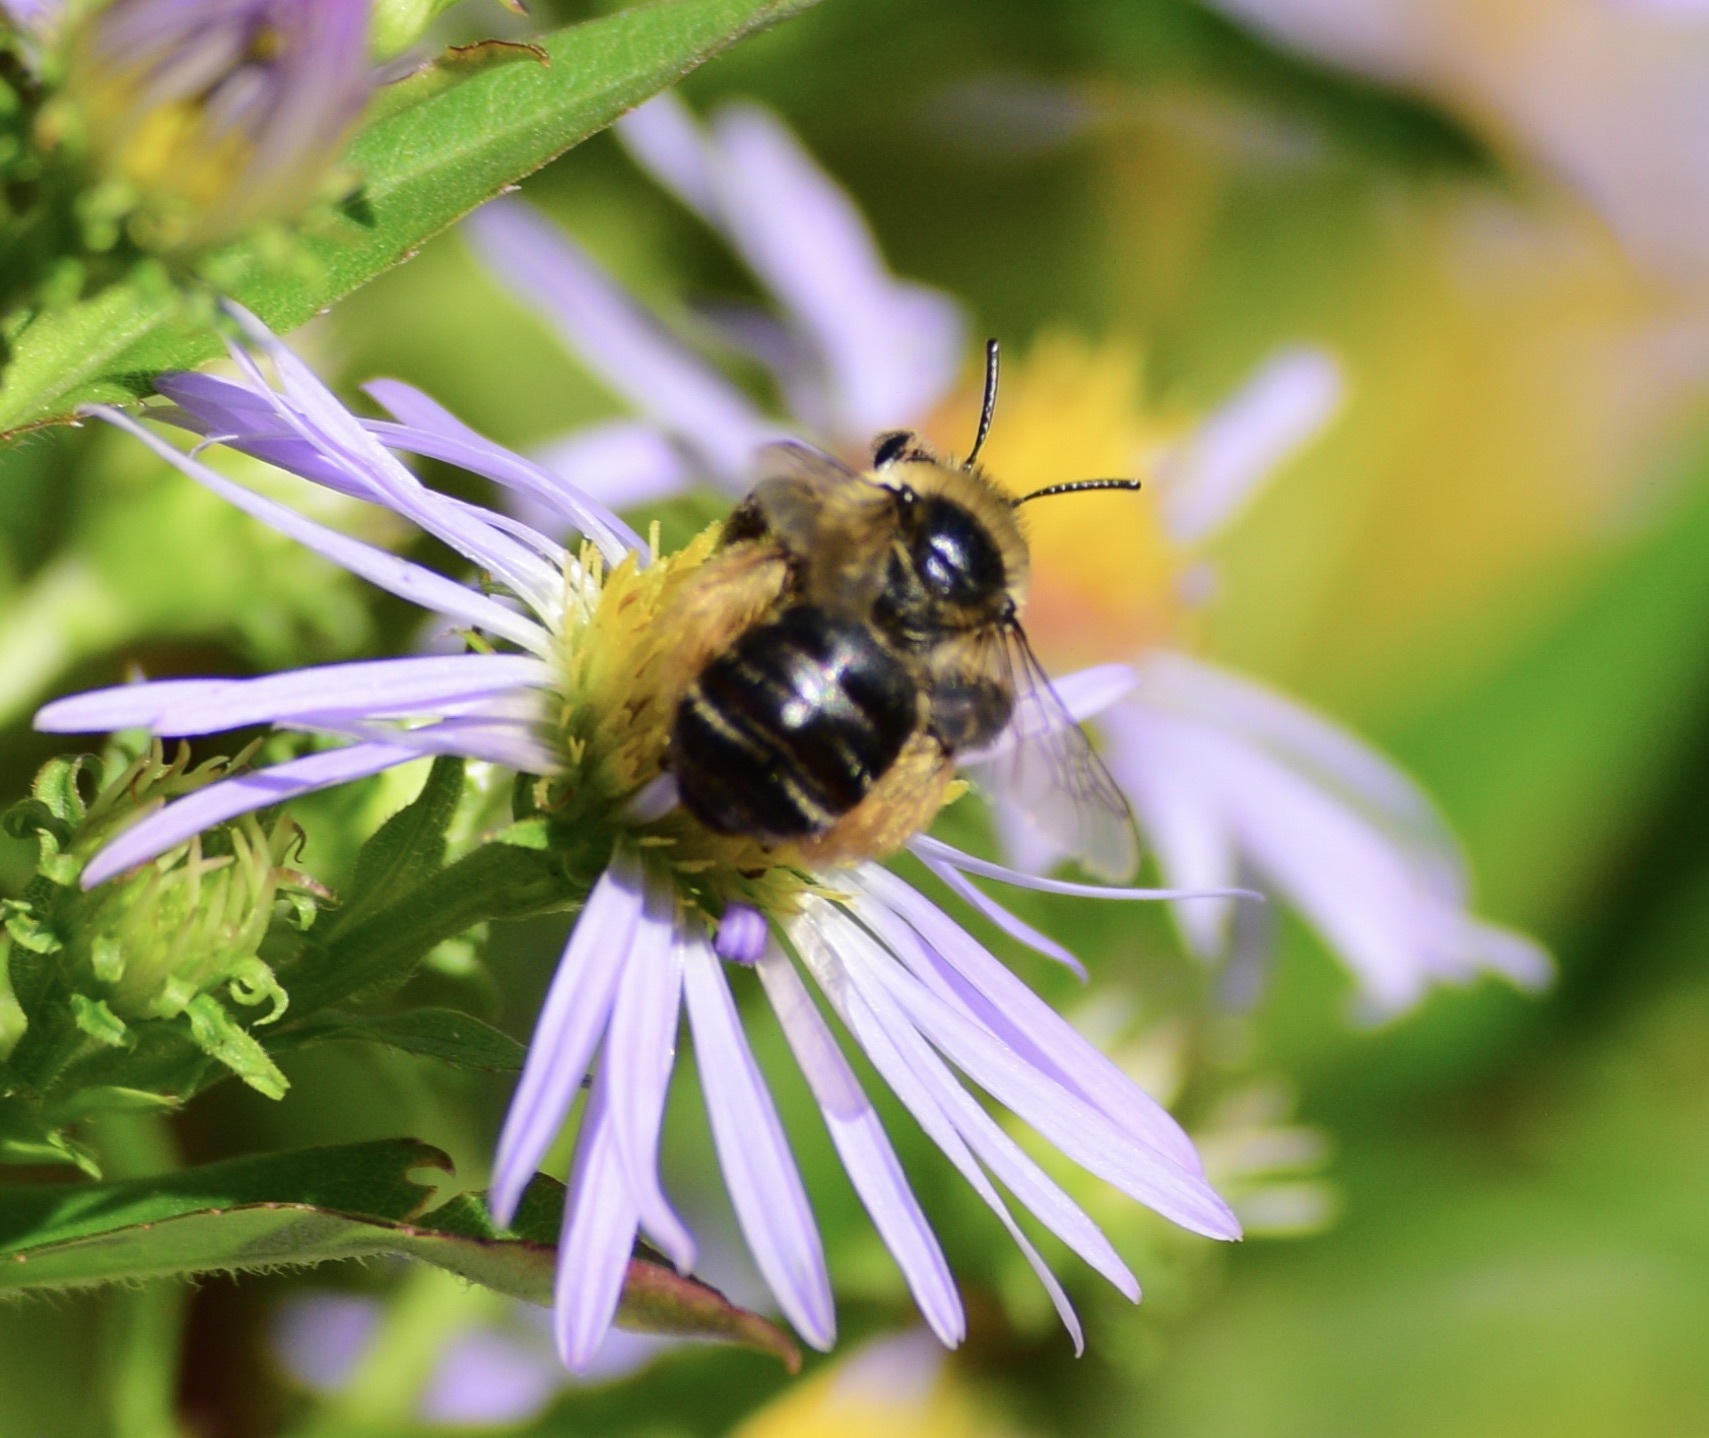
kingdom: Animalia
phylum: Arthropoda
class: Insecta
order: Hymenoptera
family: Apidae
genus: Melissodes
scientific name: Melissodes druriellus
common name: Drury's long-horned bee
